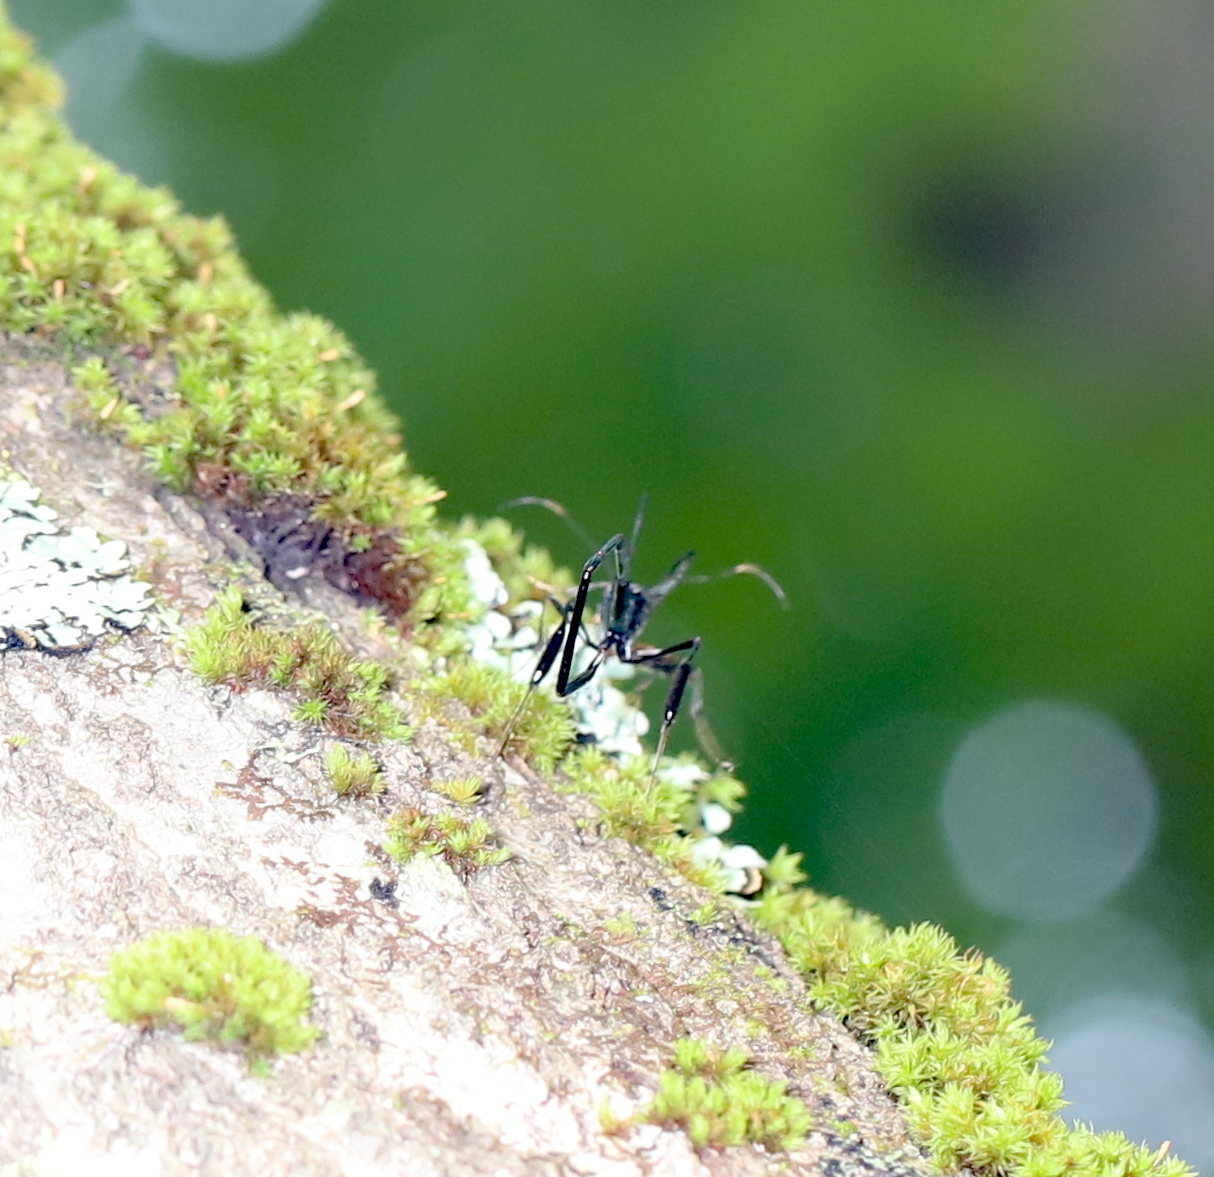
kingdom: Animalia
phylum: Arthropoda
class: Insecta
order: Hymenoptera
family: Pelecinidae
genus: Pelecinus
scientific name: Pelecinus polyturator
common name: American pelecinid wasp
